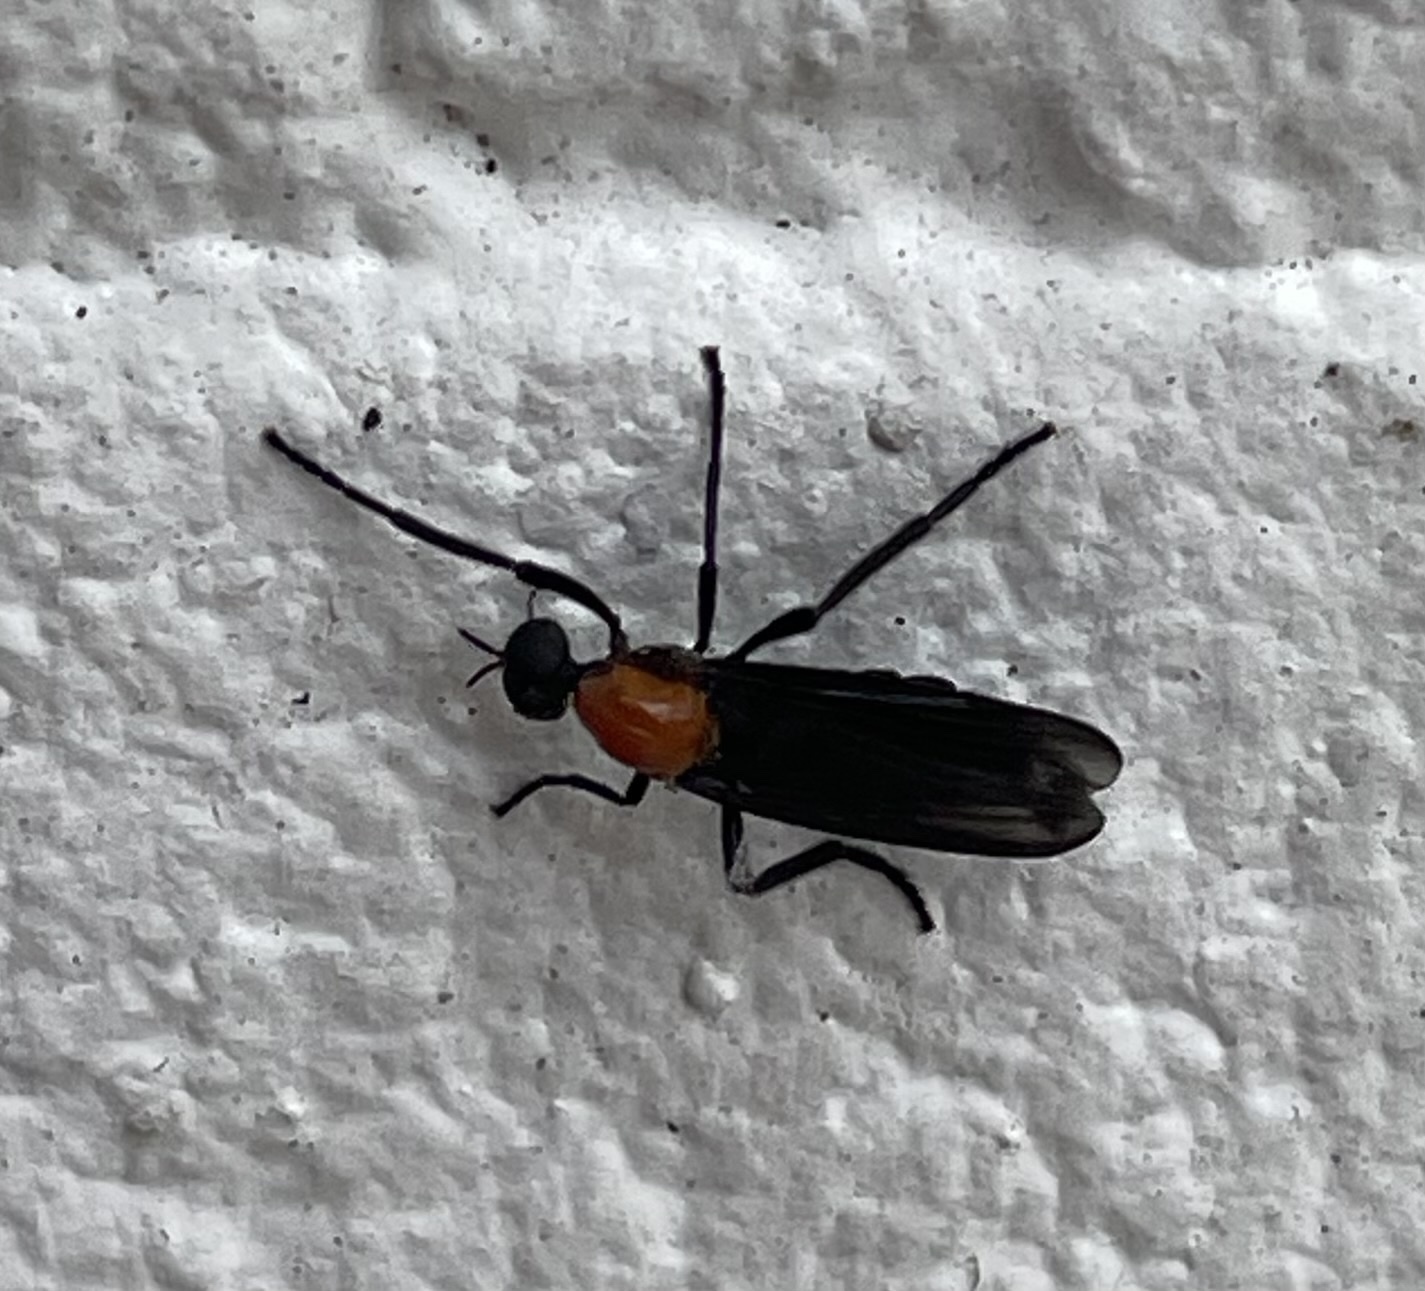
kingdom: Animalia
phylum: Arthropoda
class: Insecta
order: Diptera
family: Bibionidae
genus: Plecia
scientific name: Plecia nearctica
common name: March fly
